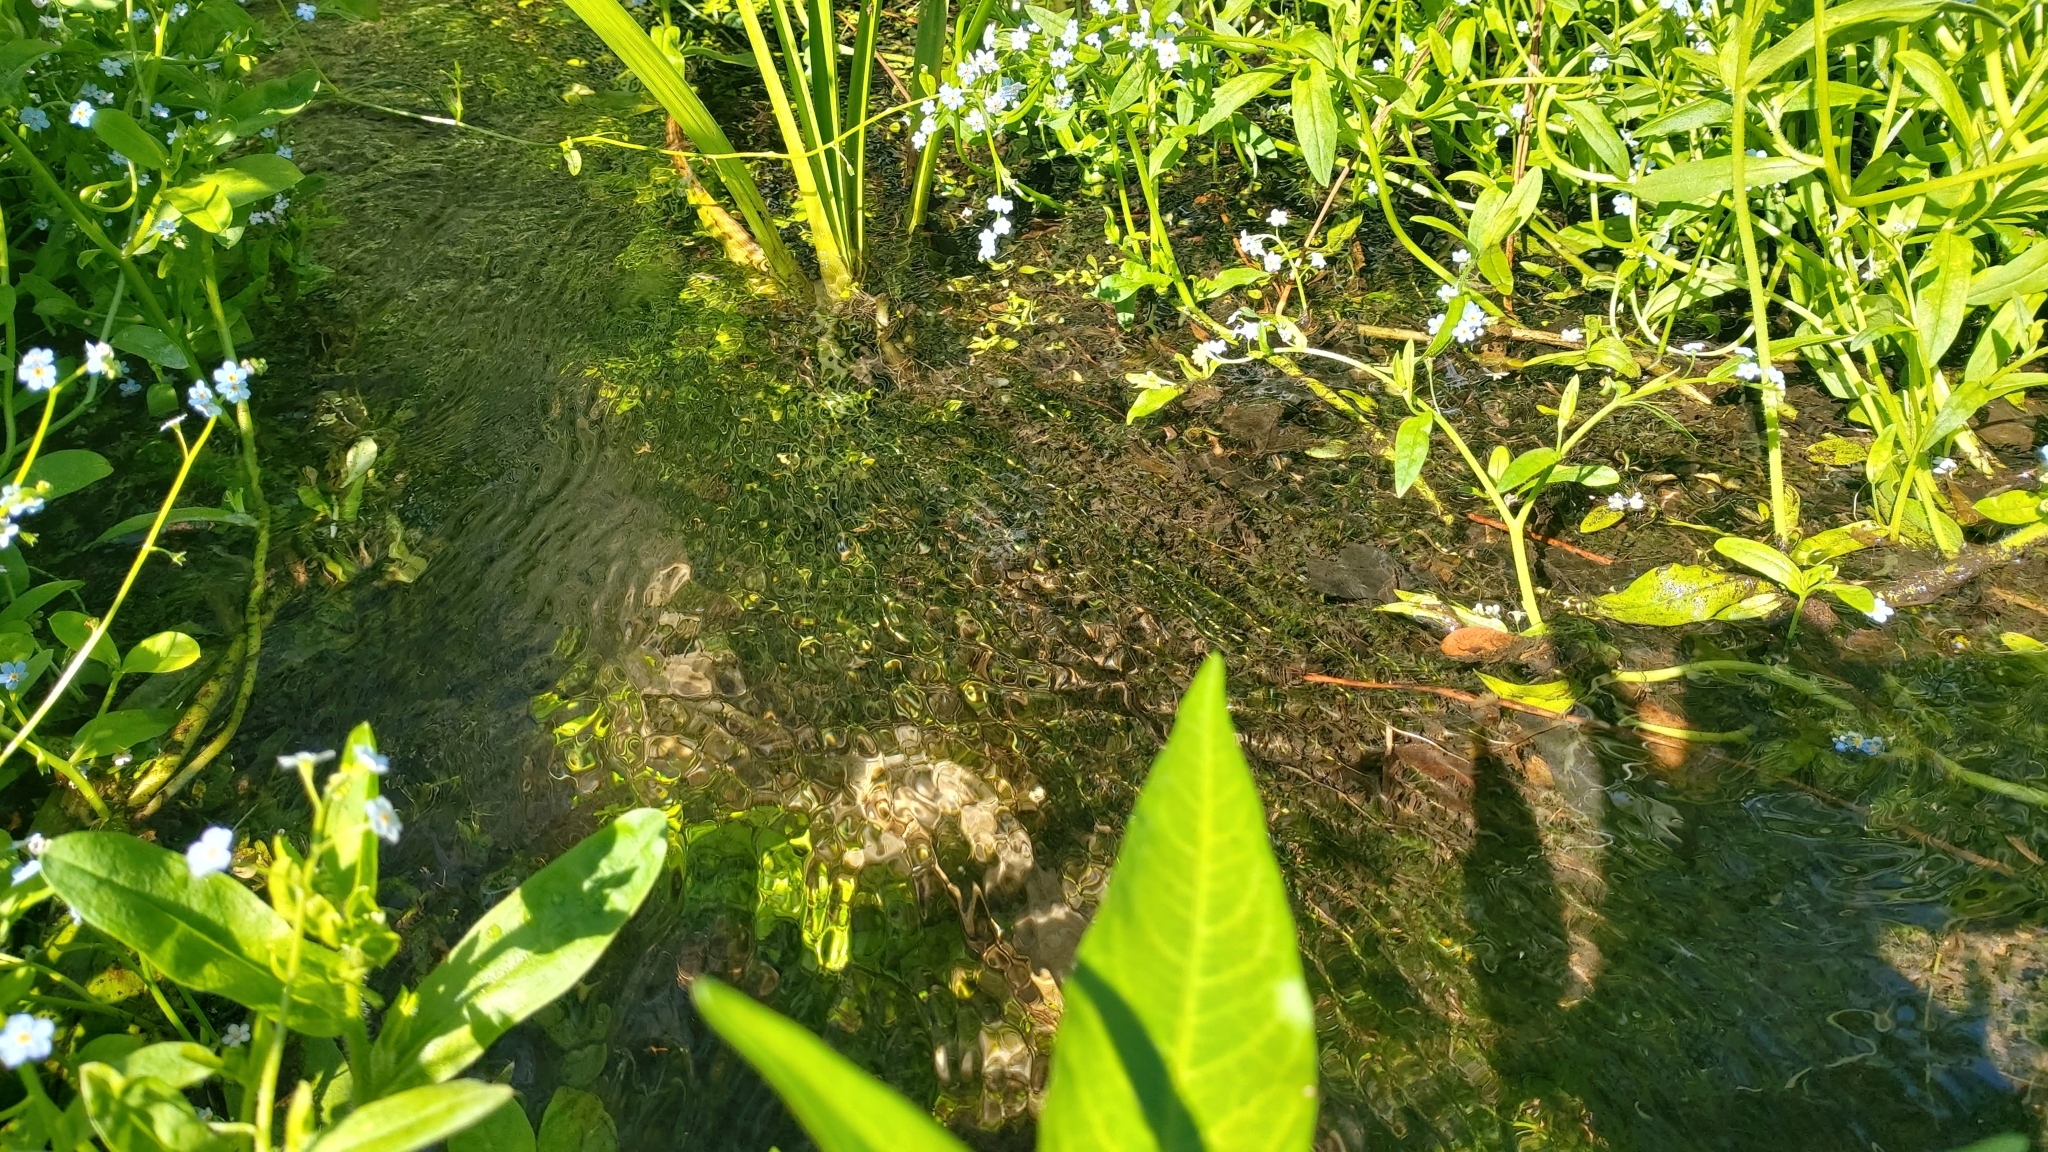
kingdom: Plantae
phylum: Tracheophyta
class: Liliopsida
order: Alismatales
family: Hydrocharitaceae
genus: Elodea
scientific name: Elodea canadensis
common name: Canadian waterweed
